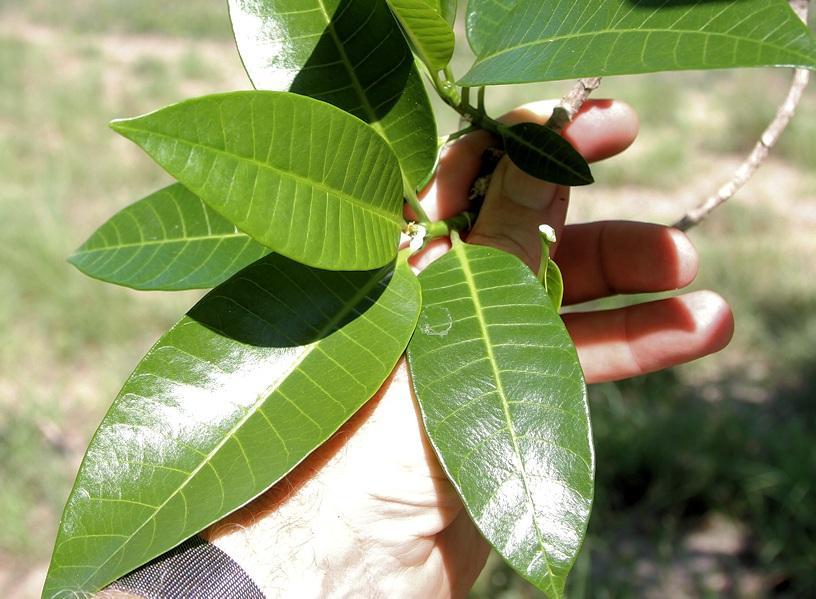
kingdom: Plantae
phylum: Tracheophyta
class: Magnoliopsida
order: Gentianales
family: Apocynaceae
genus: Tabernaemontana
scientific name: Tabernaemontana elegans
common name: Toadtree
